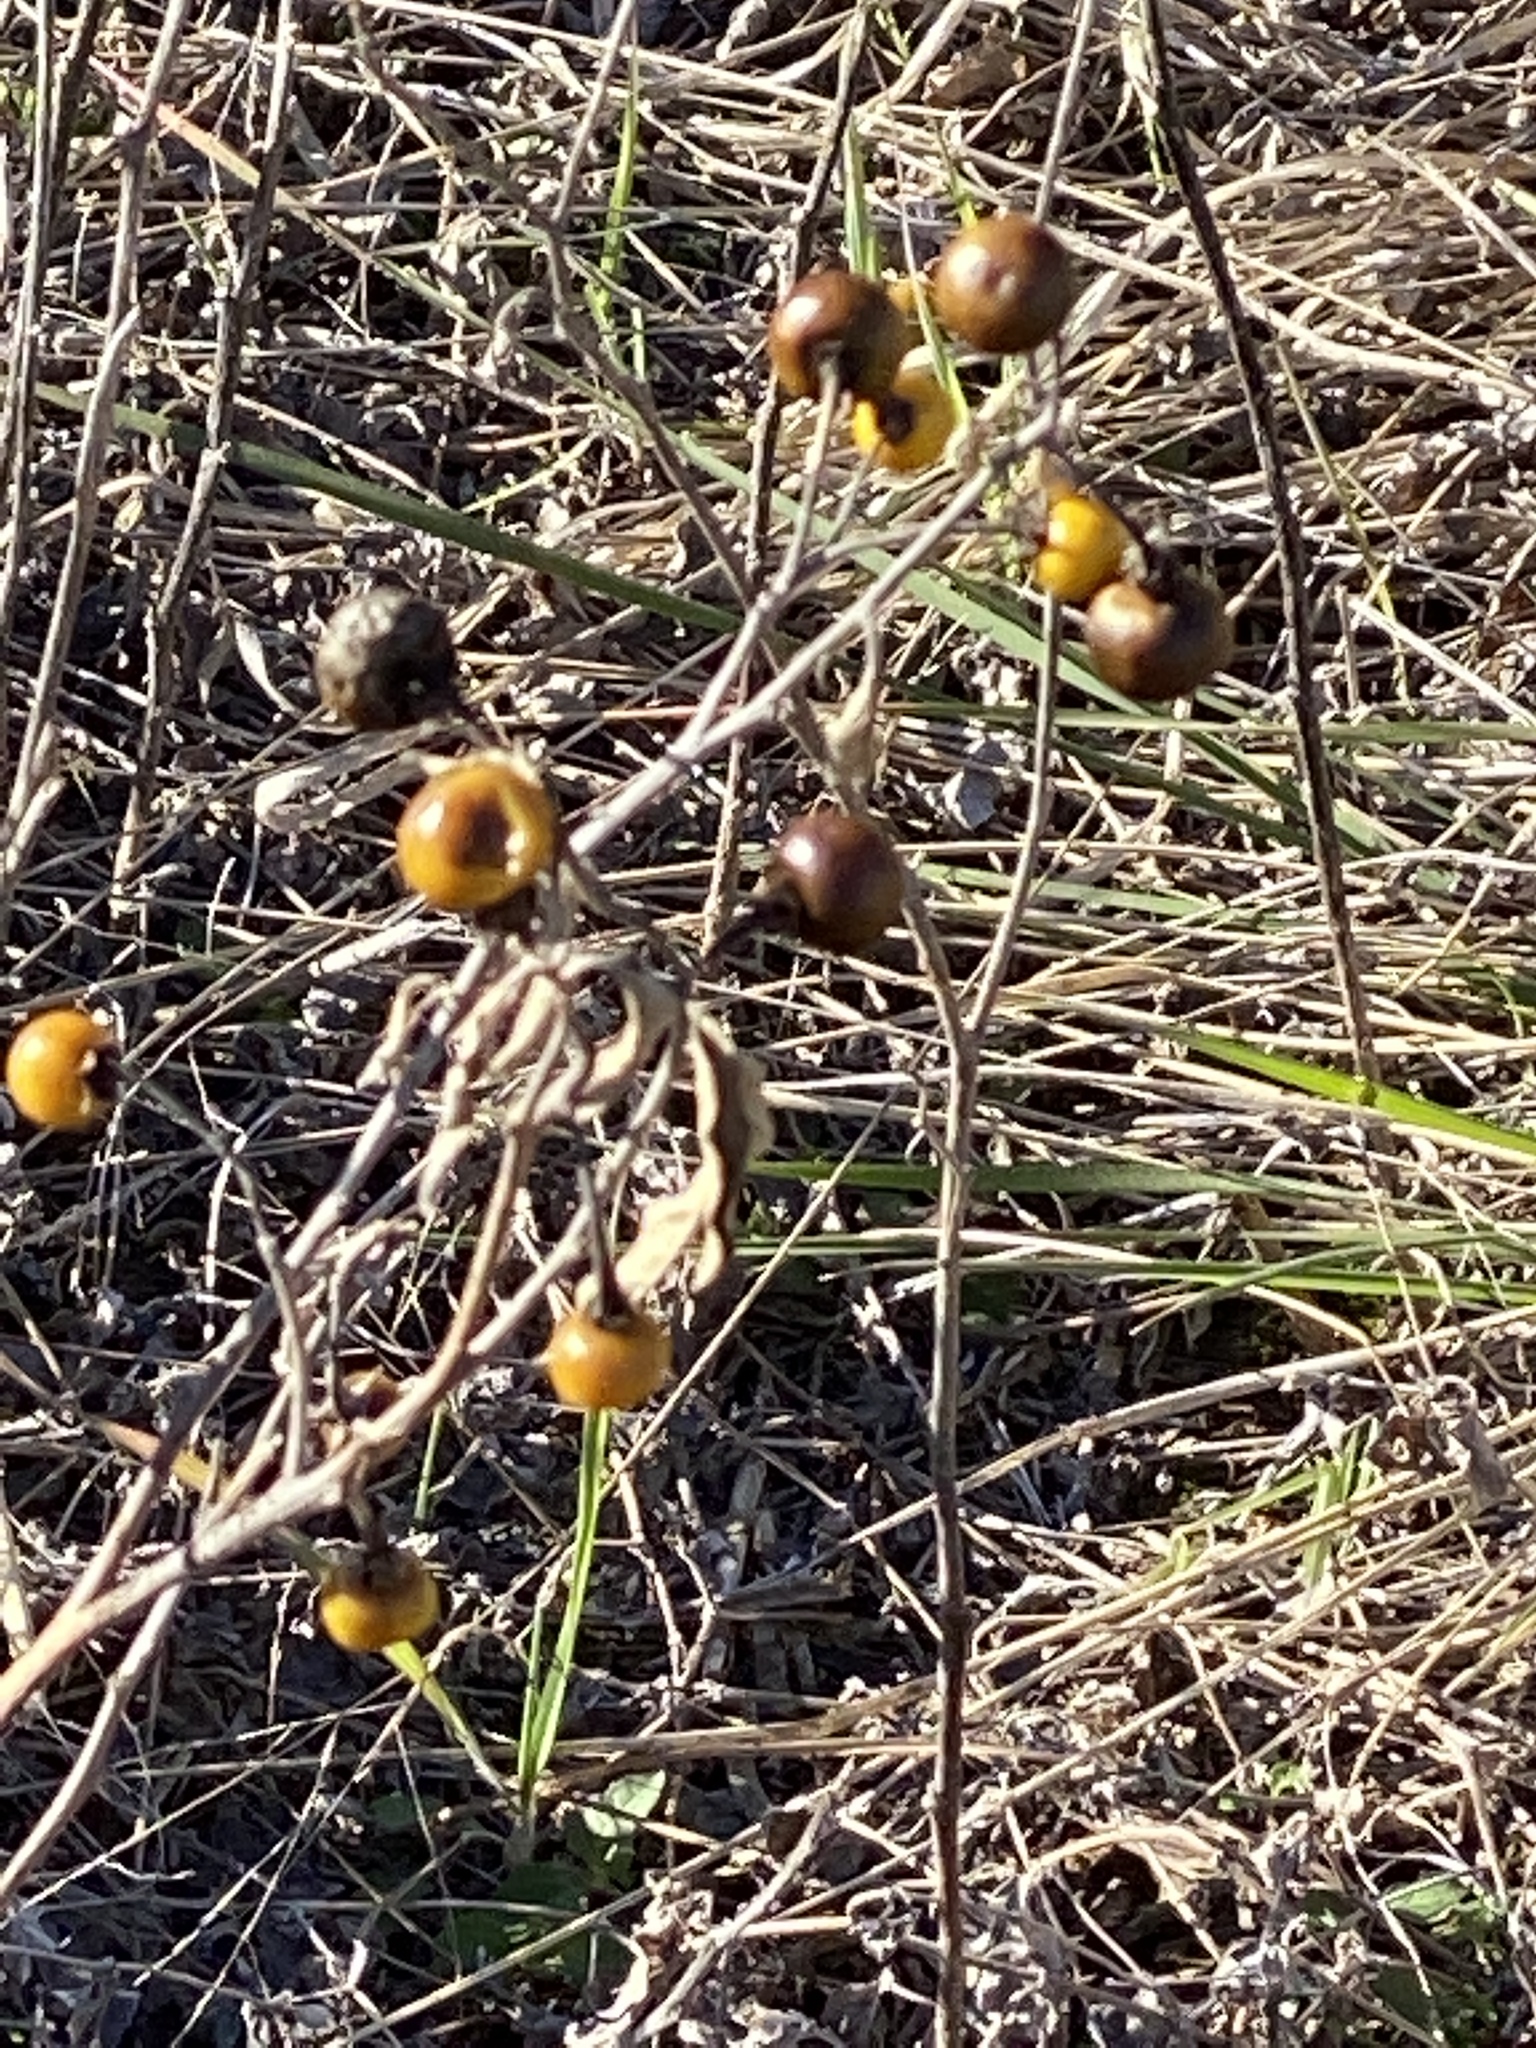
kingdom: Plantae
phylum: Tracheophyta
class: Magnoliopsida
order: Solanales
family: Solanaceae
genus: Solanum
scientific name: Solanum elaeagnifolium
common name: Silverleaf nightshade
